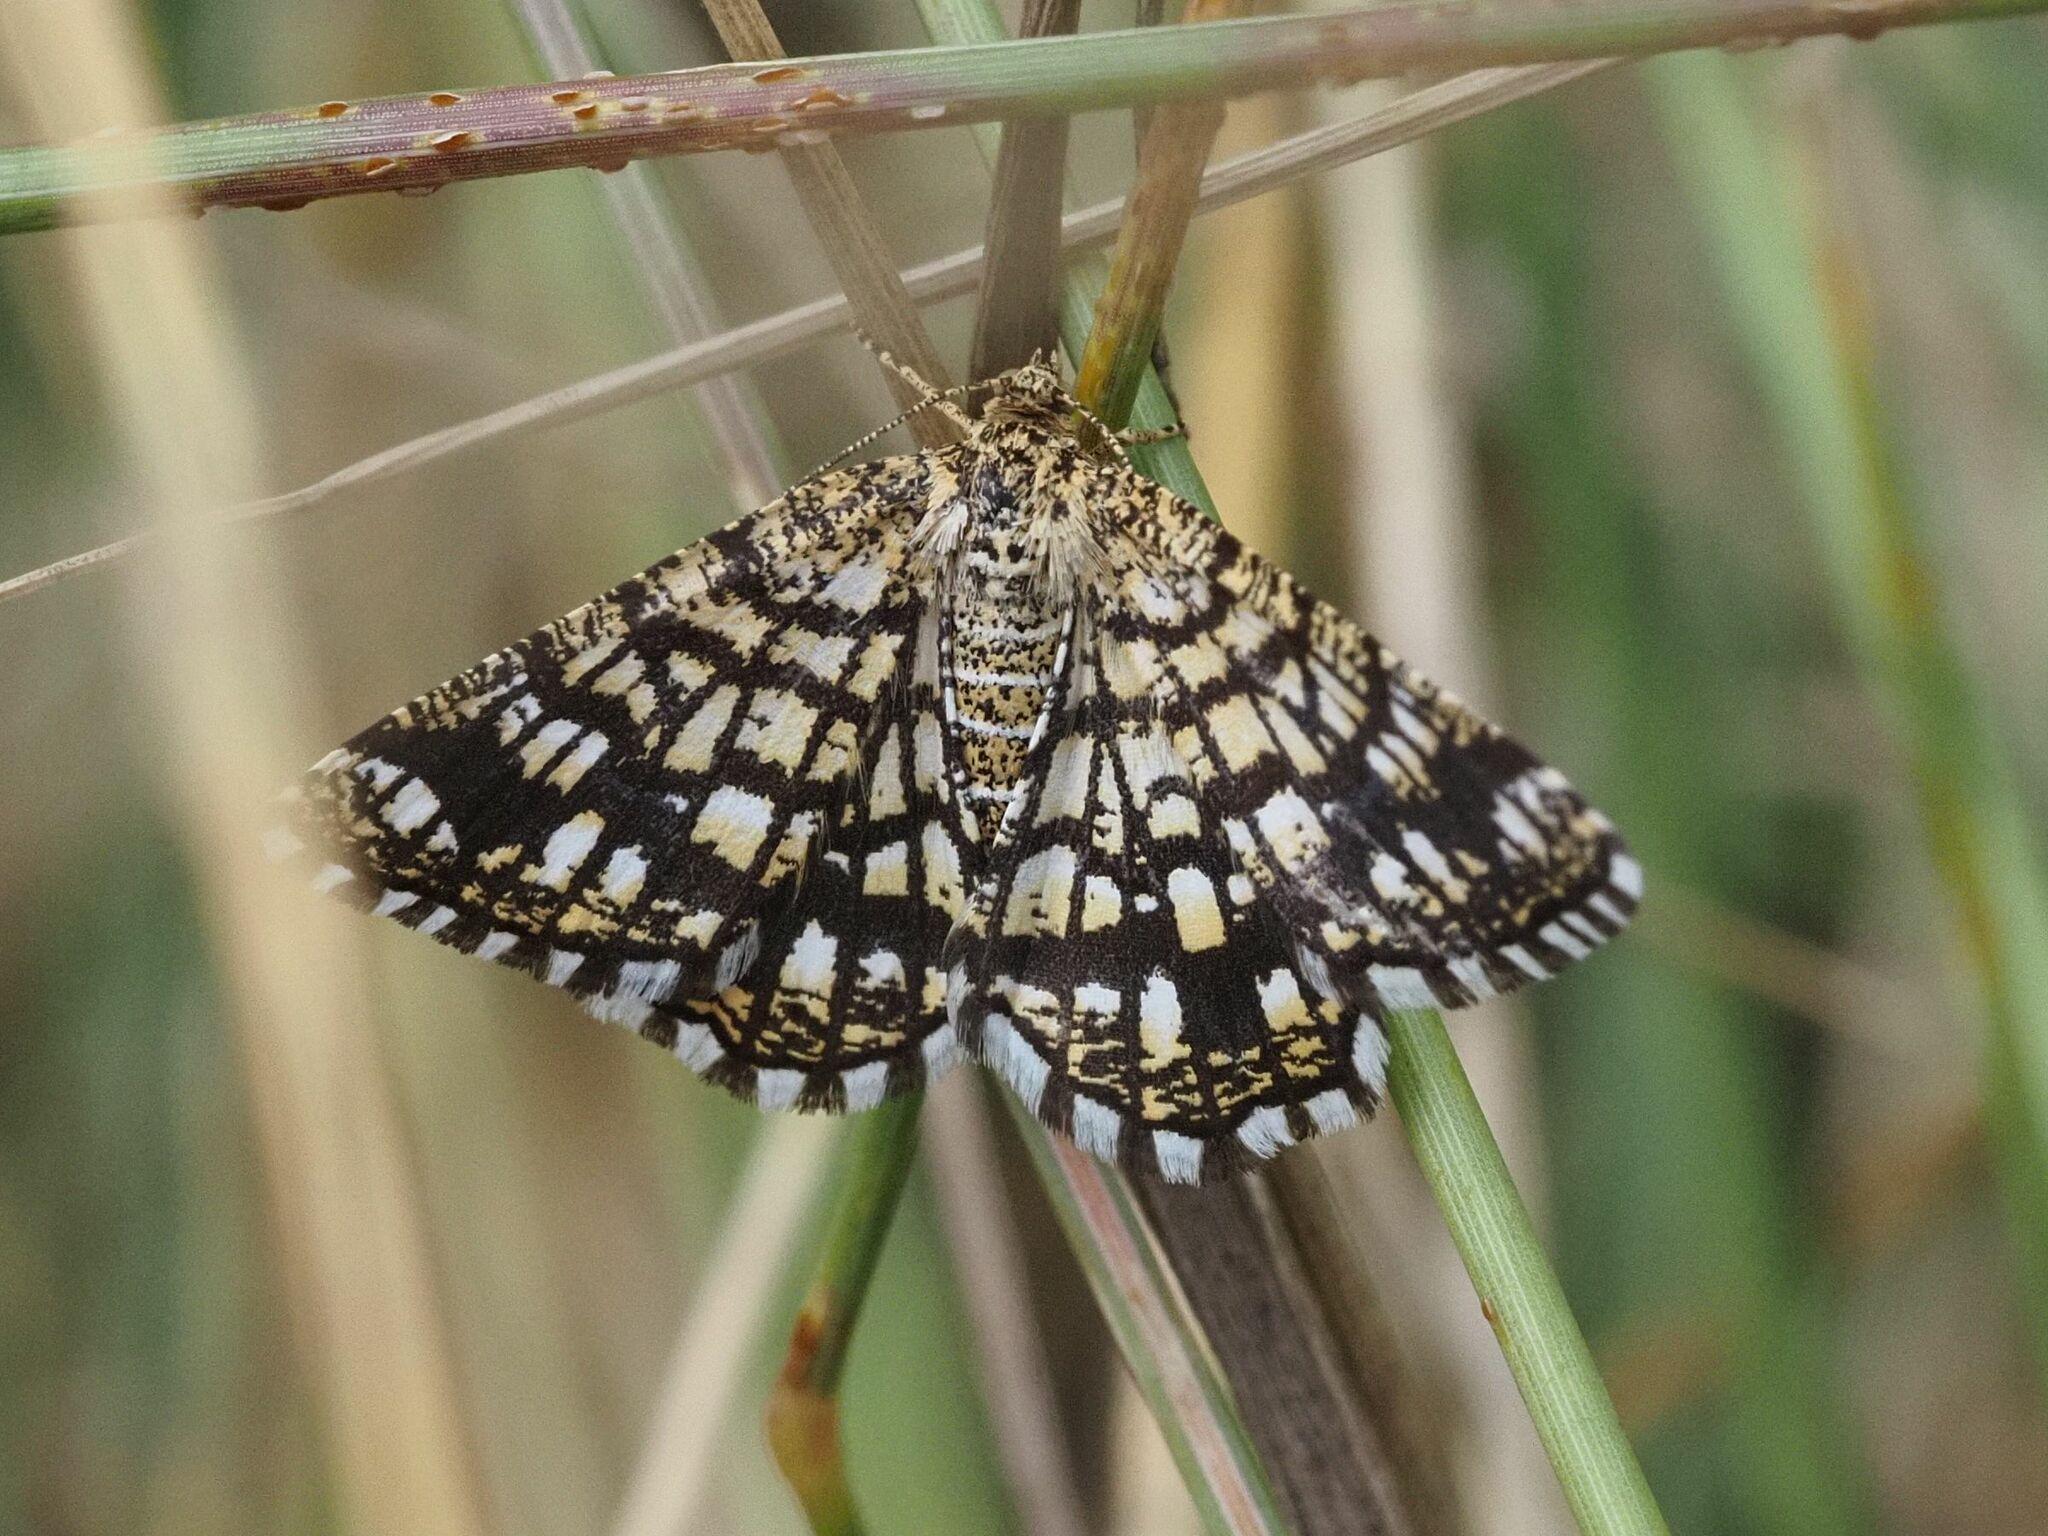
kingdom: Animalia
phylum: Arthropoda
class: Insecta
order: Lepidoptera
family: Geometridae
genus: Chiasmia
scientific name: Chiasmia clathrata
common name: Latticed heath
